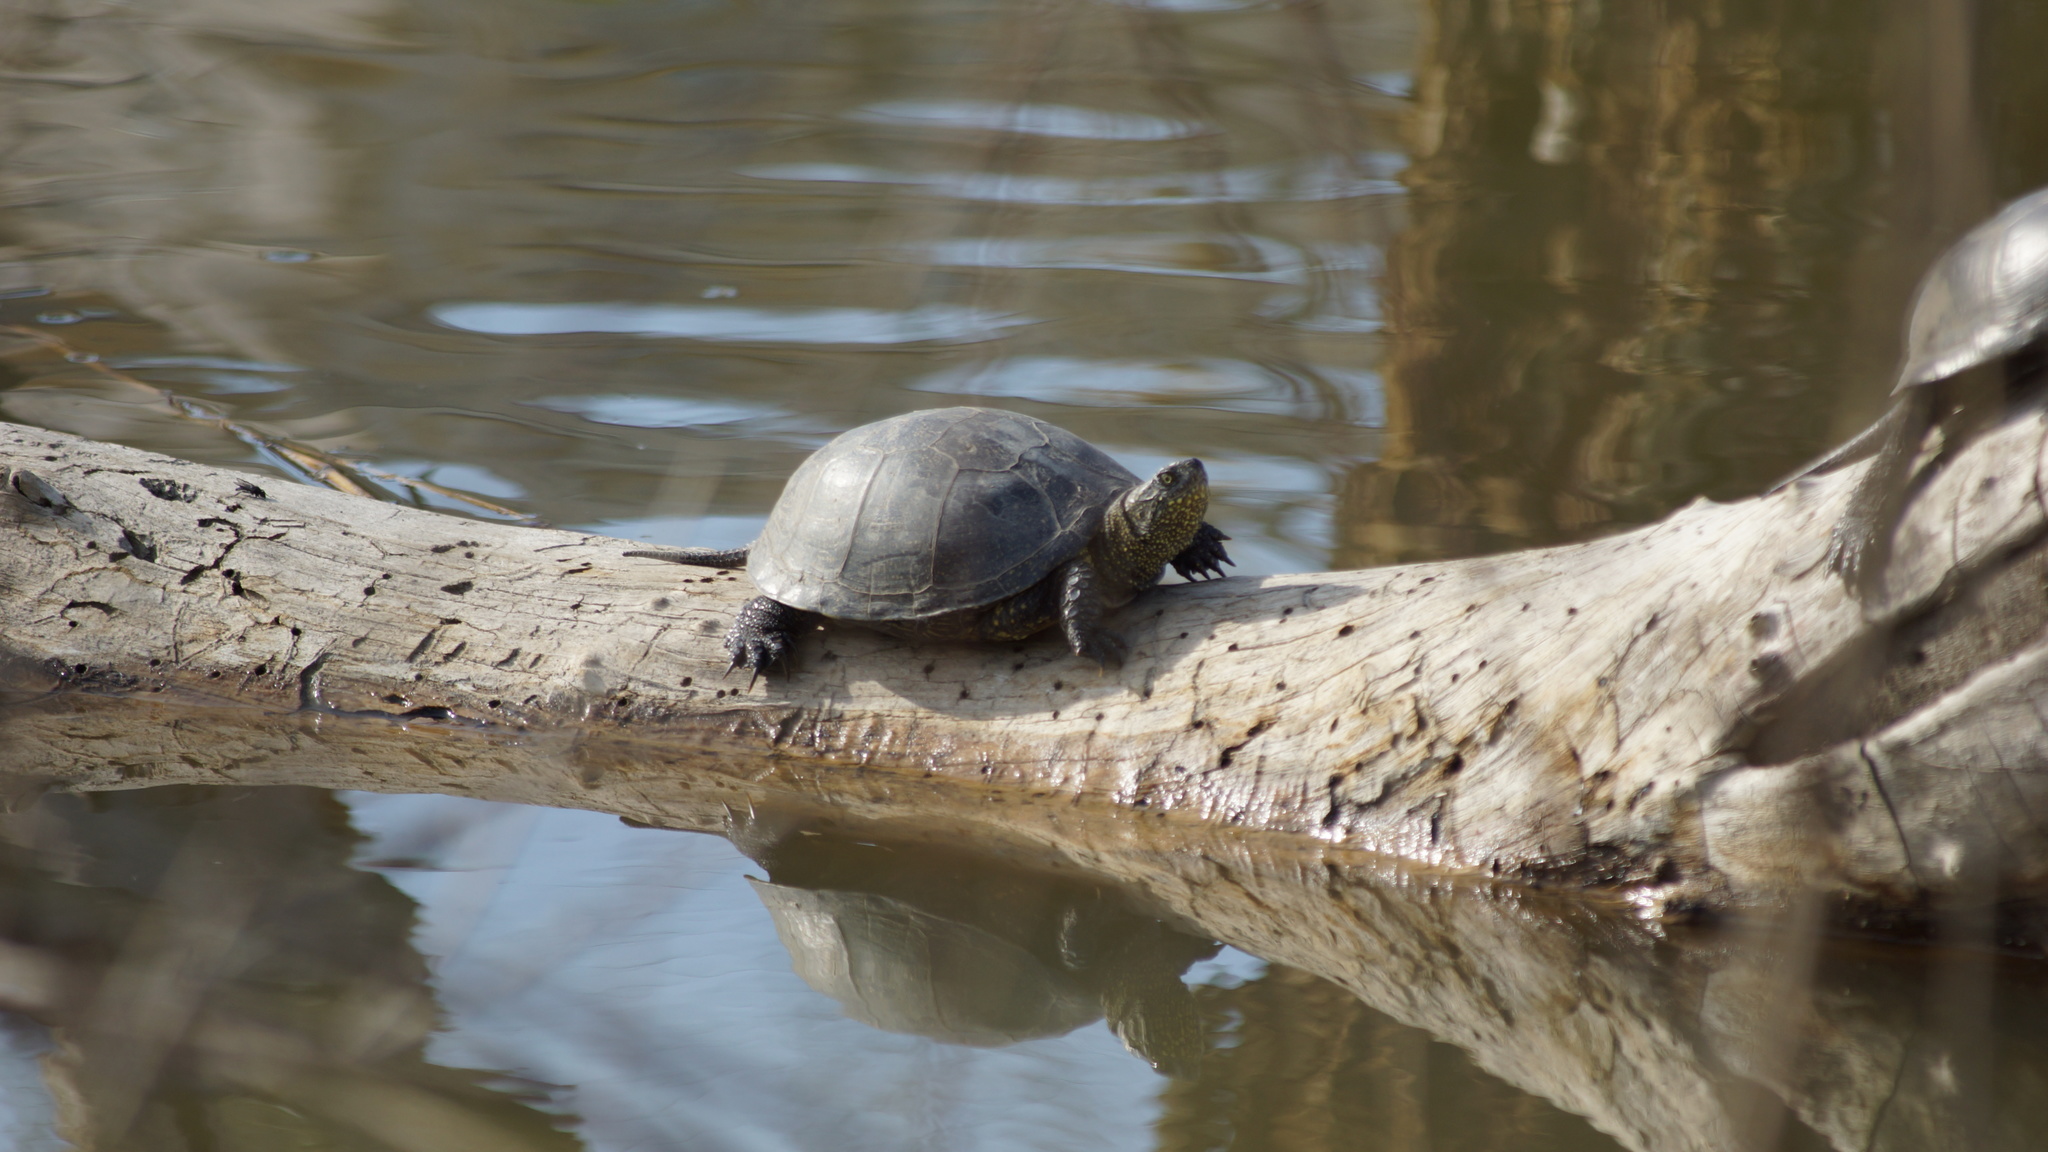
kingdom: Animalia
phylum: Chordata
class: Testudines
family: Emydidae
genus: Emys
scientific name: Emys orbicularis
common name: European pond turtle
